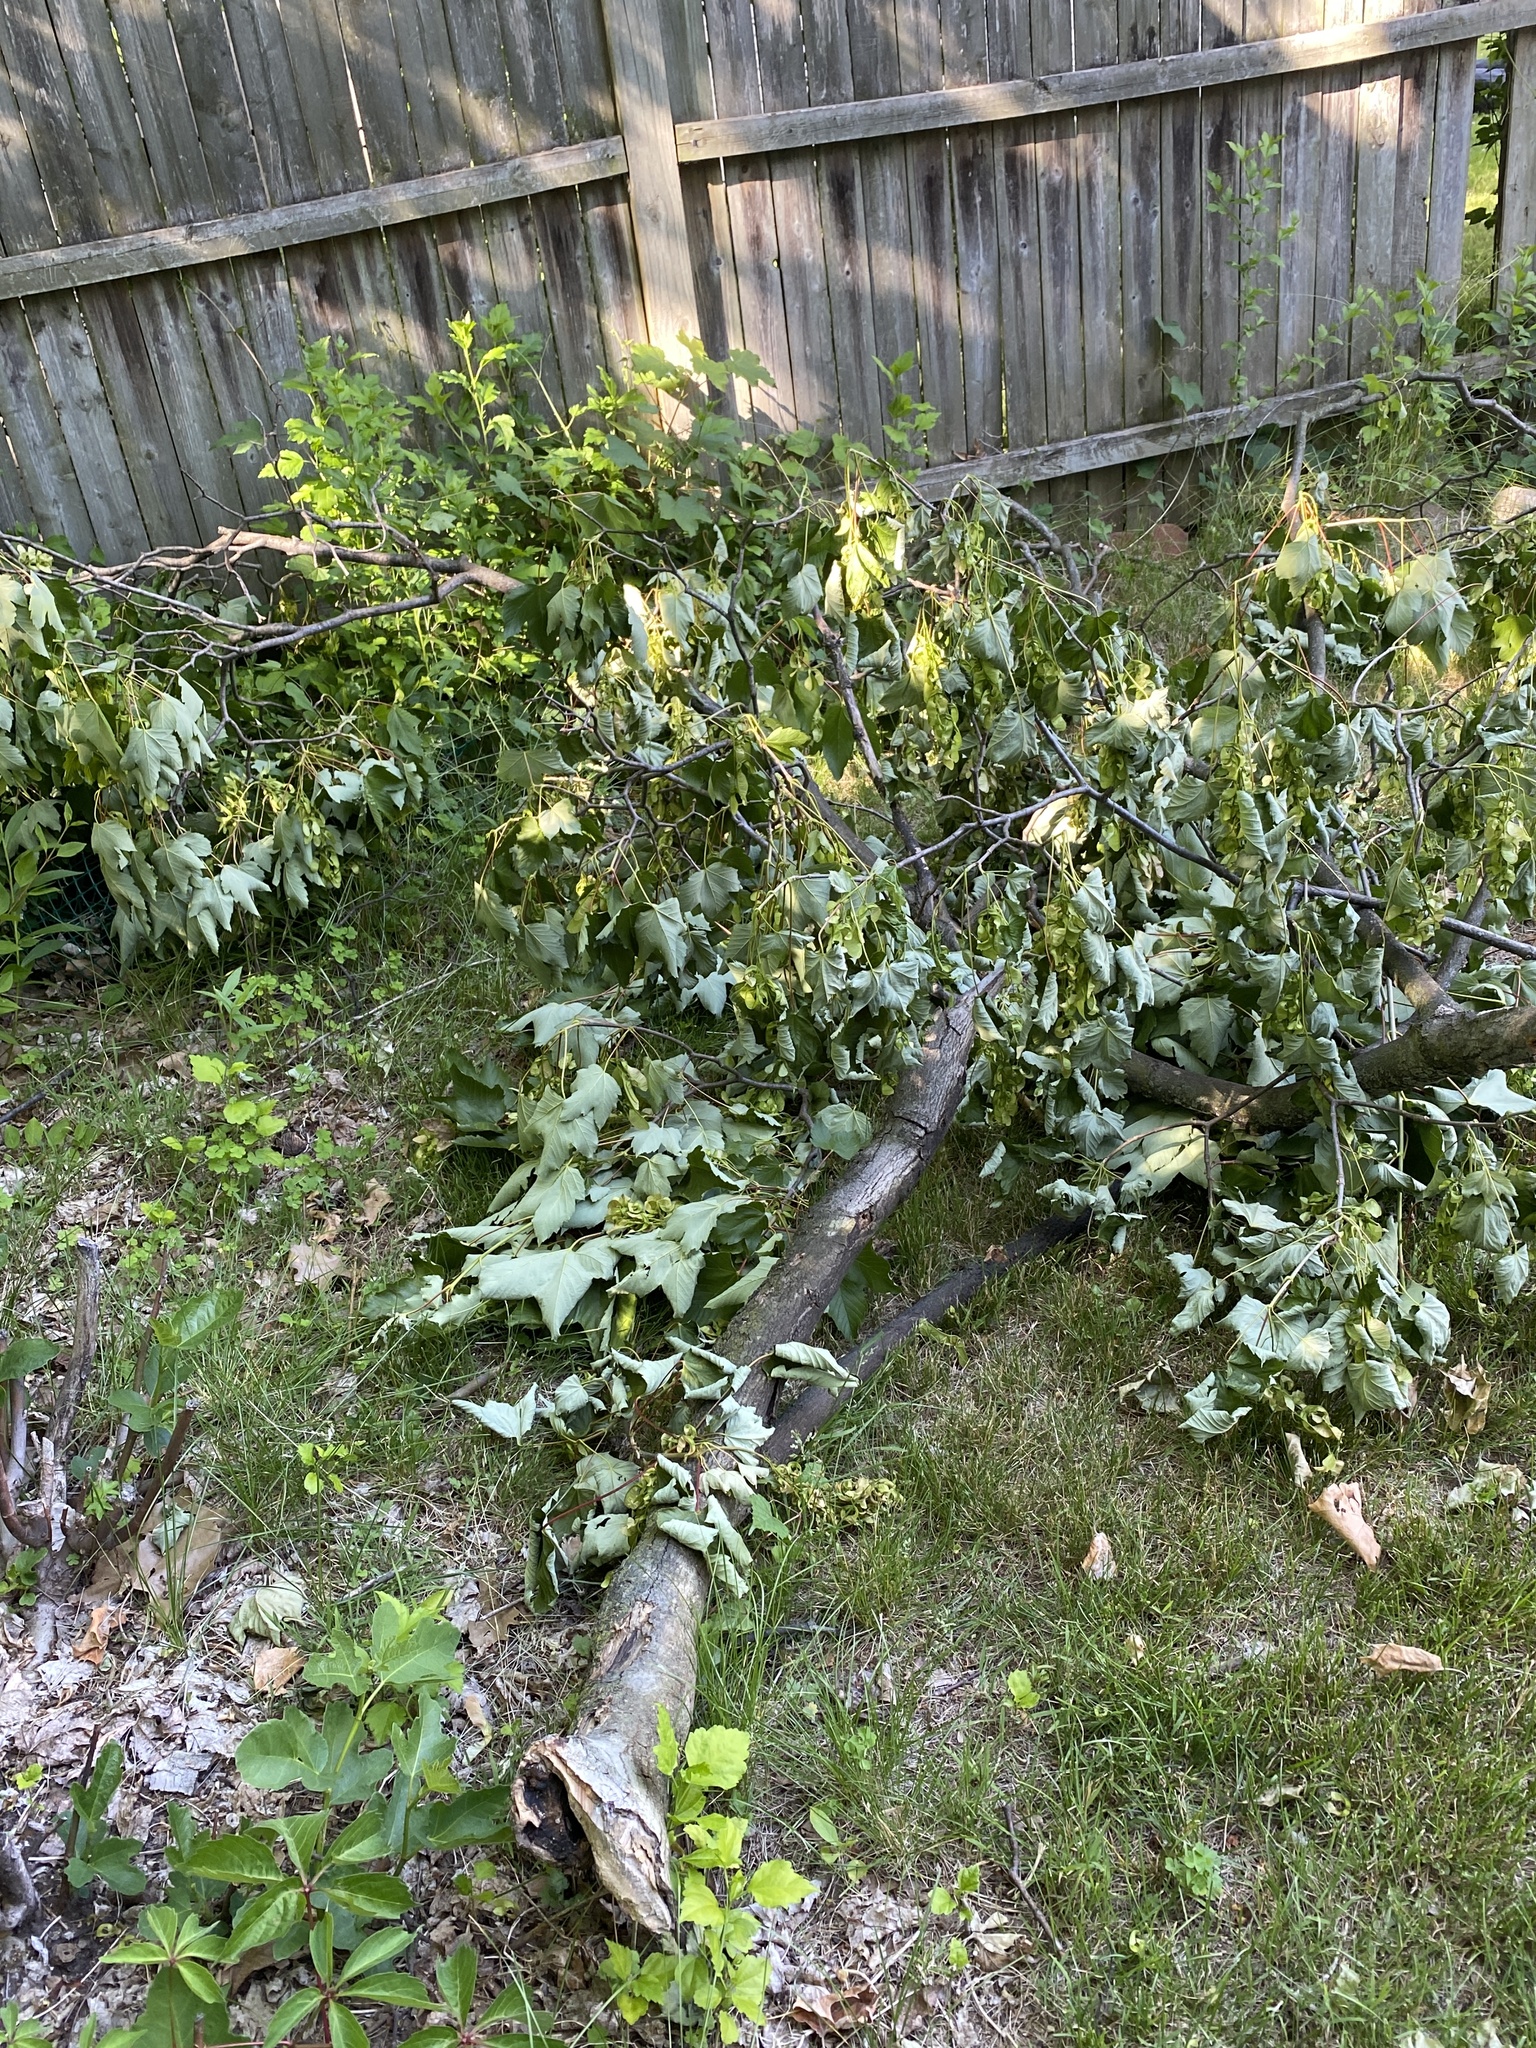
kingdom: Plantae
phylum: Tracheophyta
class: Magnoliopsida
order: Sapindales
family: Sapindaceae
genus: Acer
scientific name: Acer pseudoplatanus
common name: Sycamore
